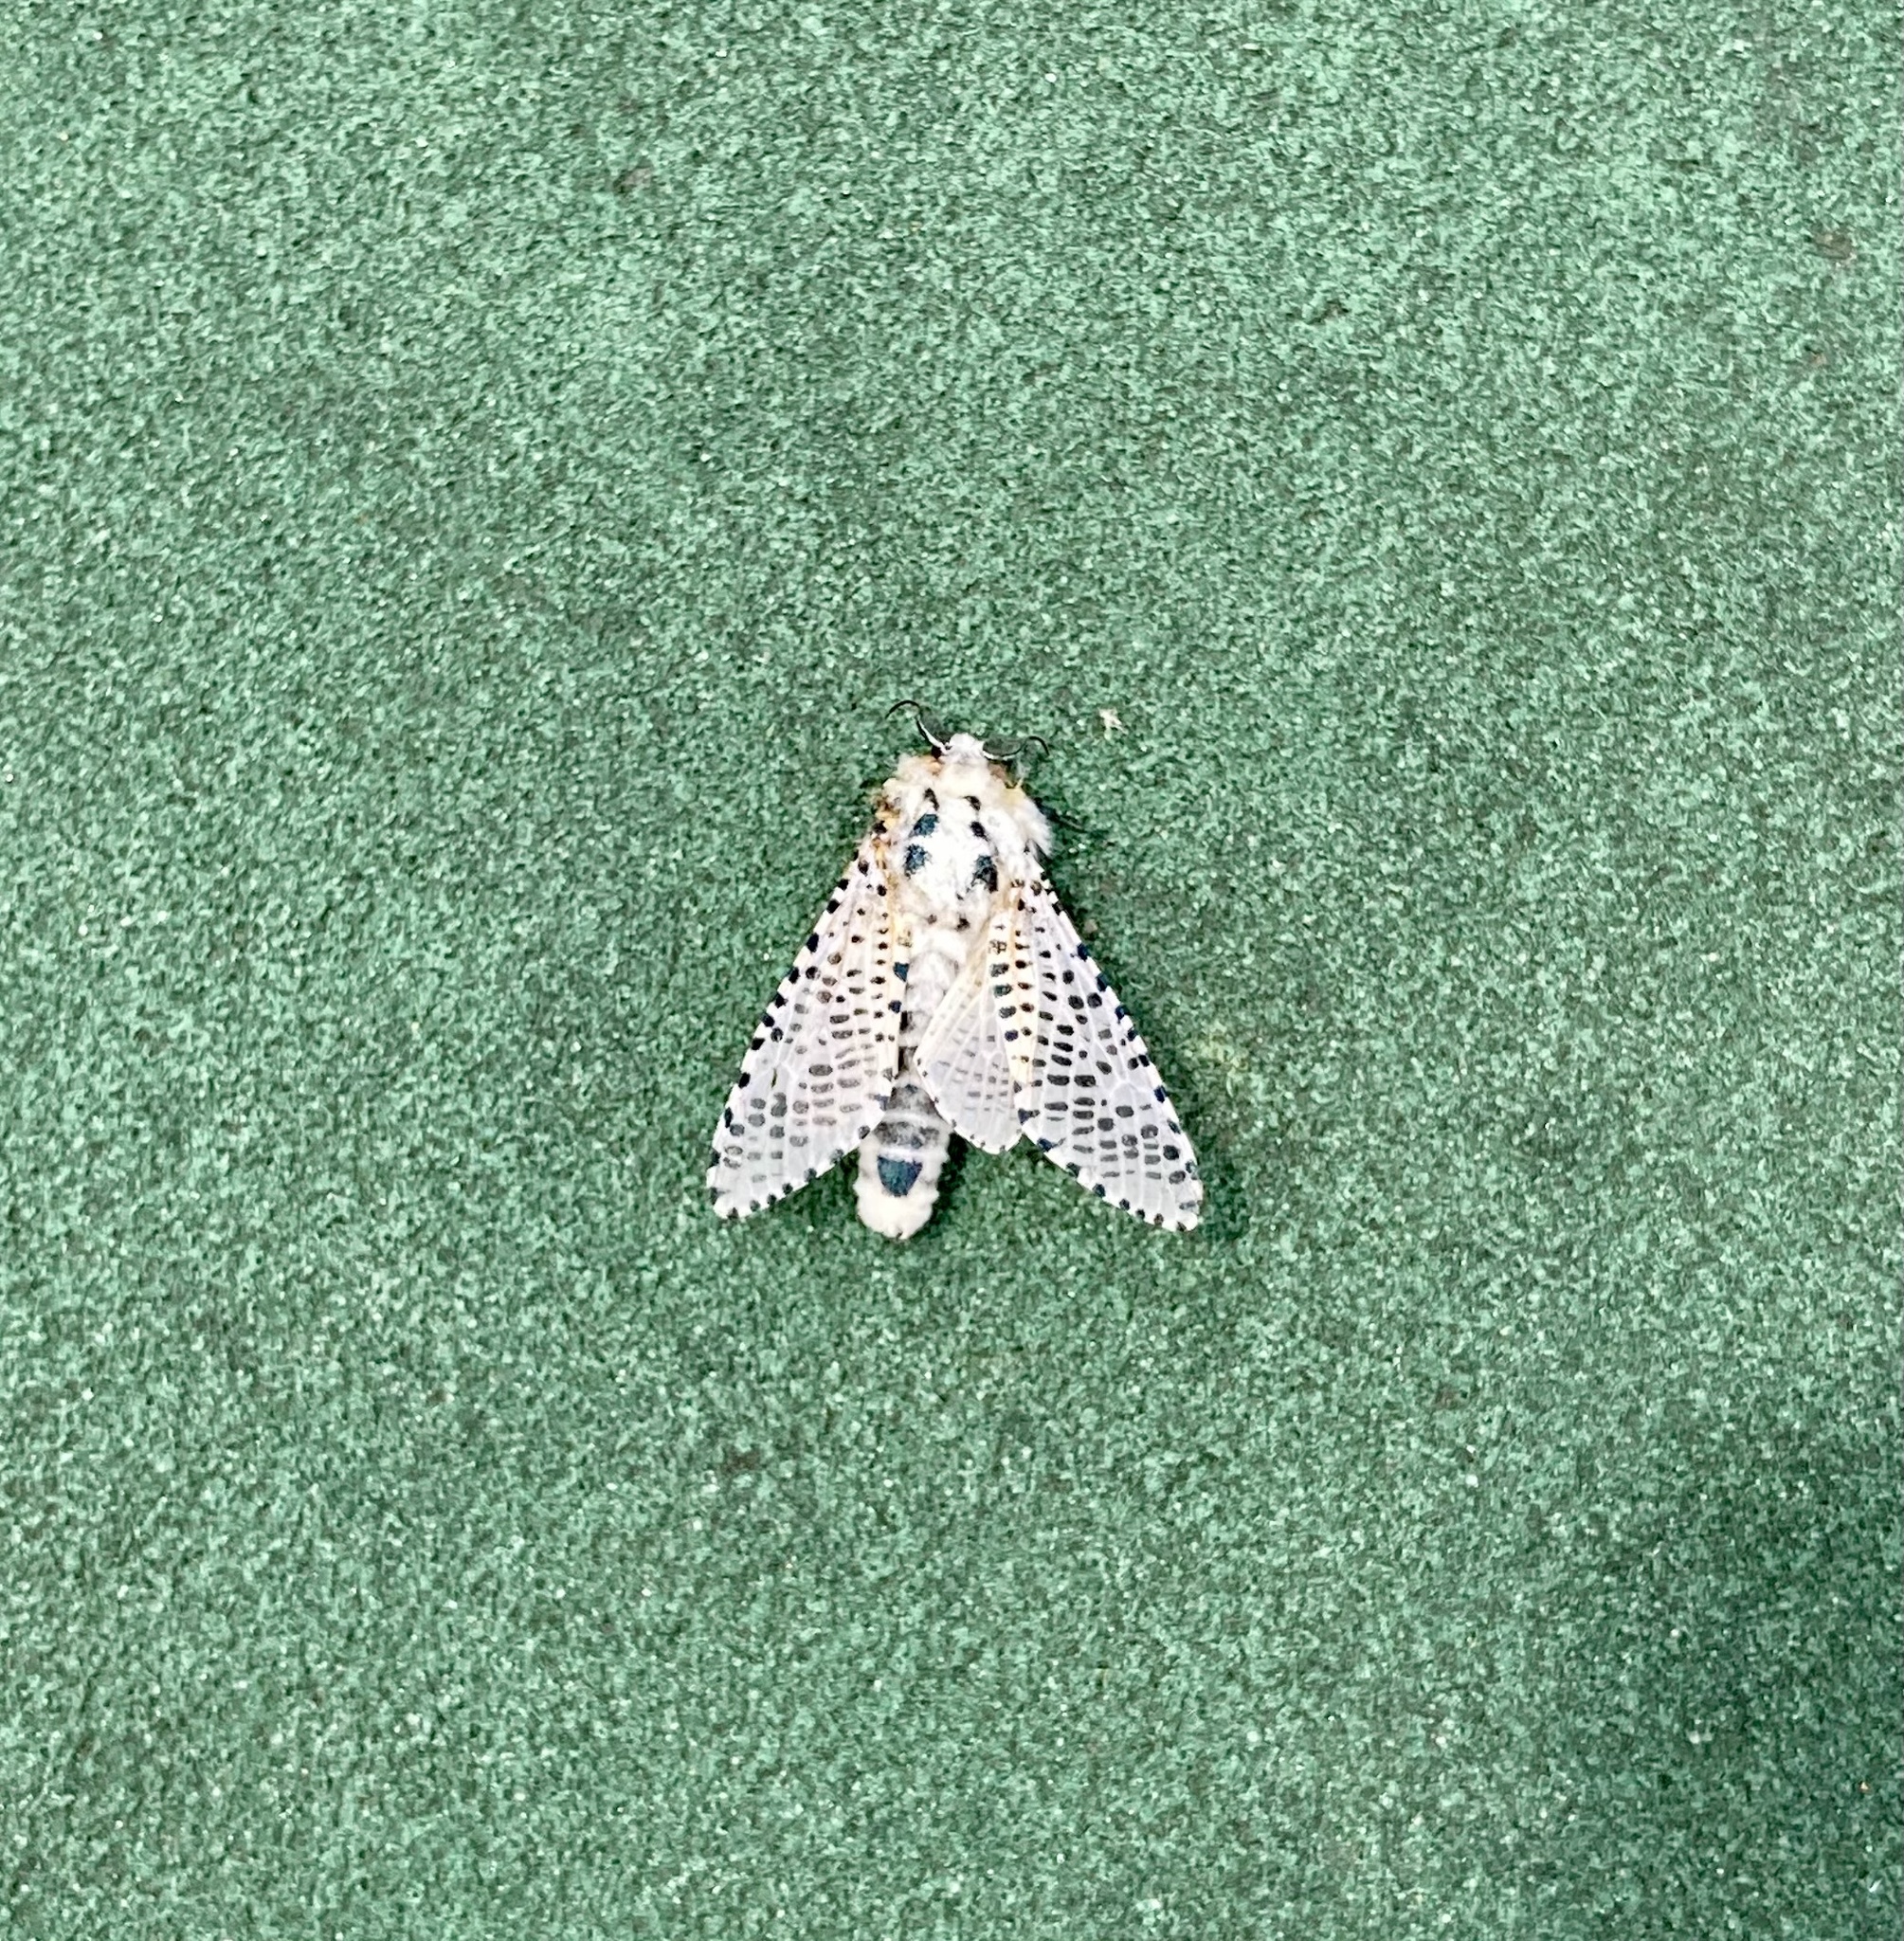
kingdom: Animalia
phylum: Arthropoda
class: Insecta
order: Lepidoptera
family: Cossidae
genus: Zeuzera
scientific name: Zeuzera pyrina
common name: Leopard moth
